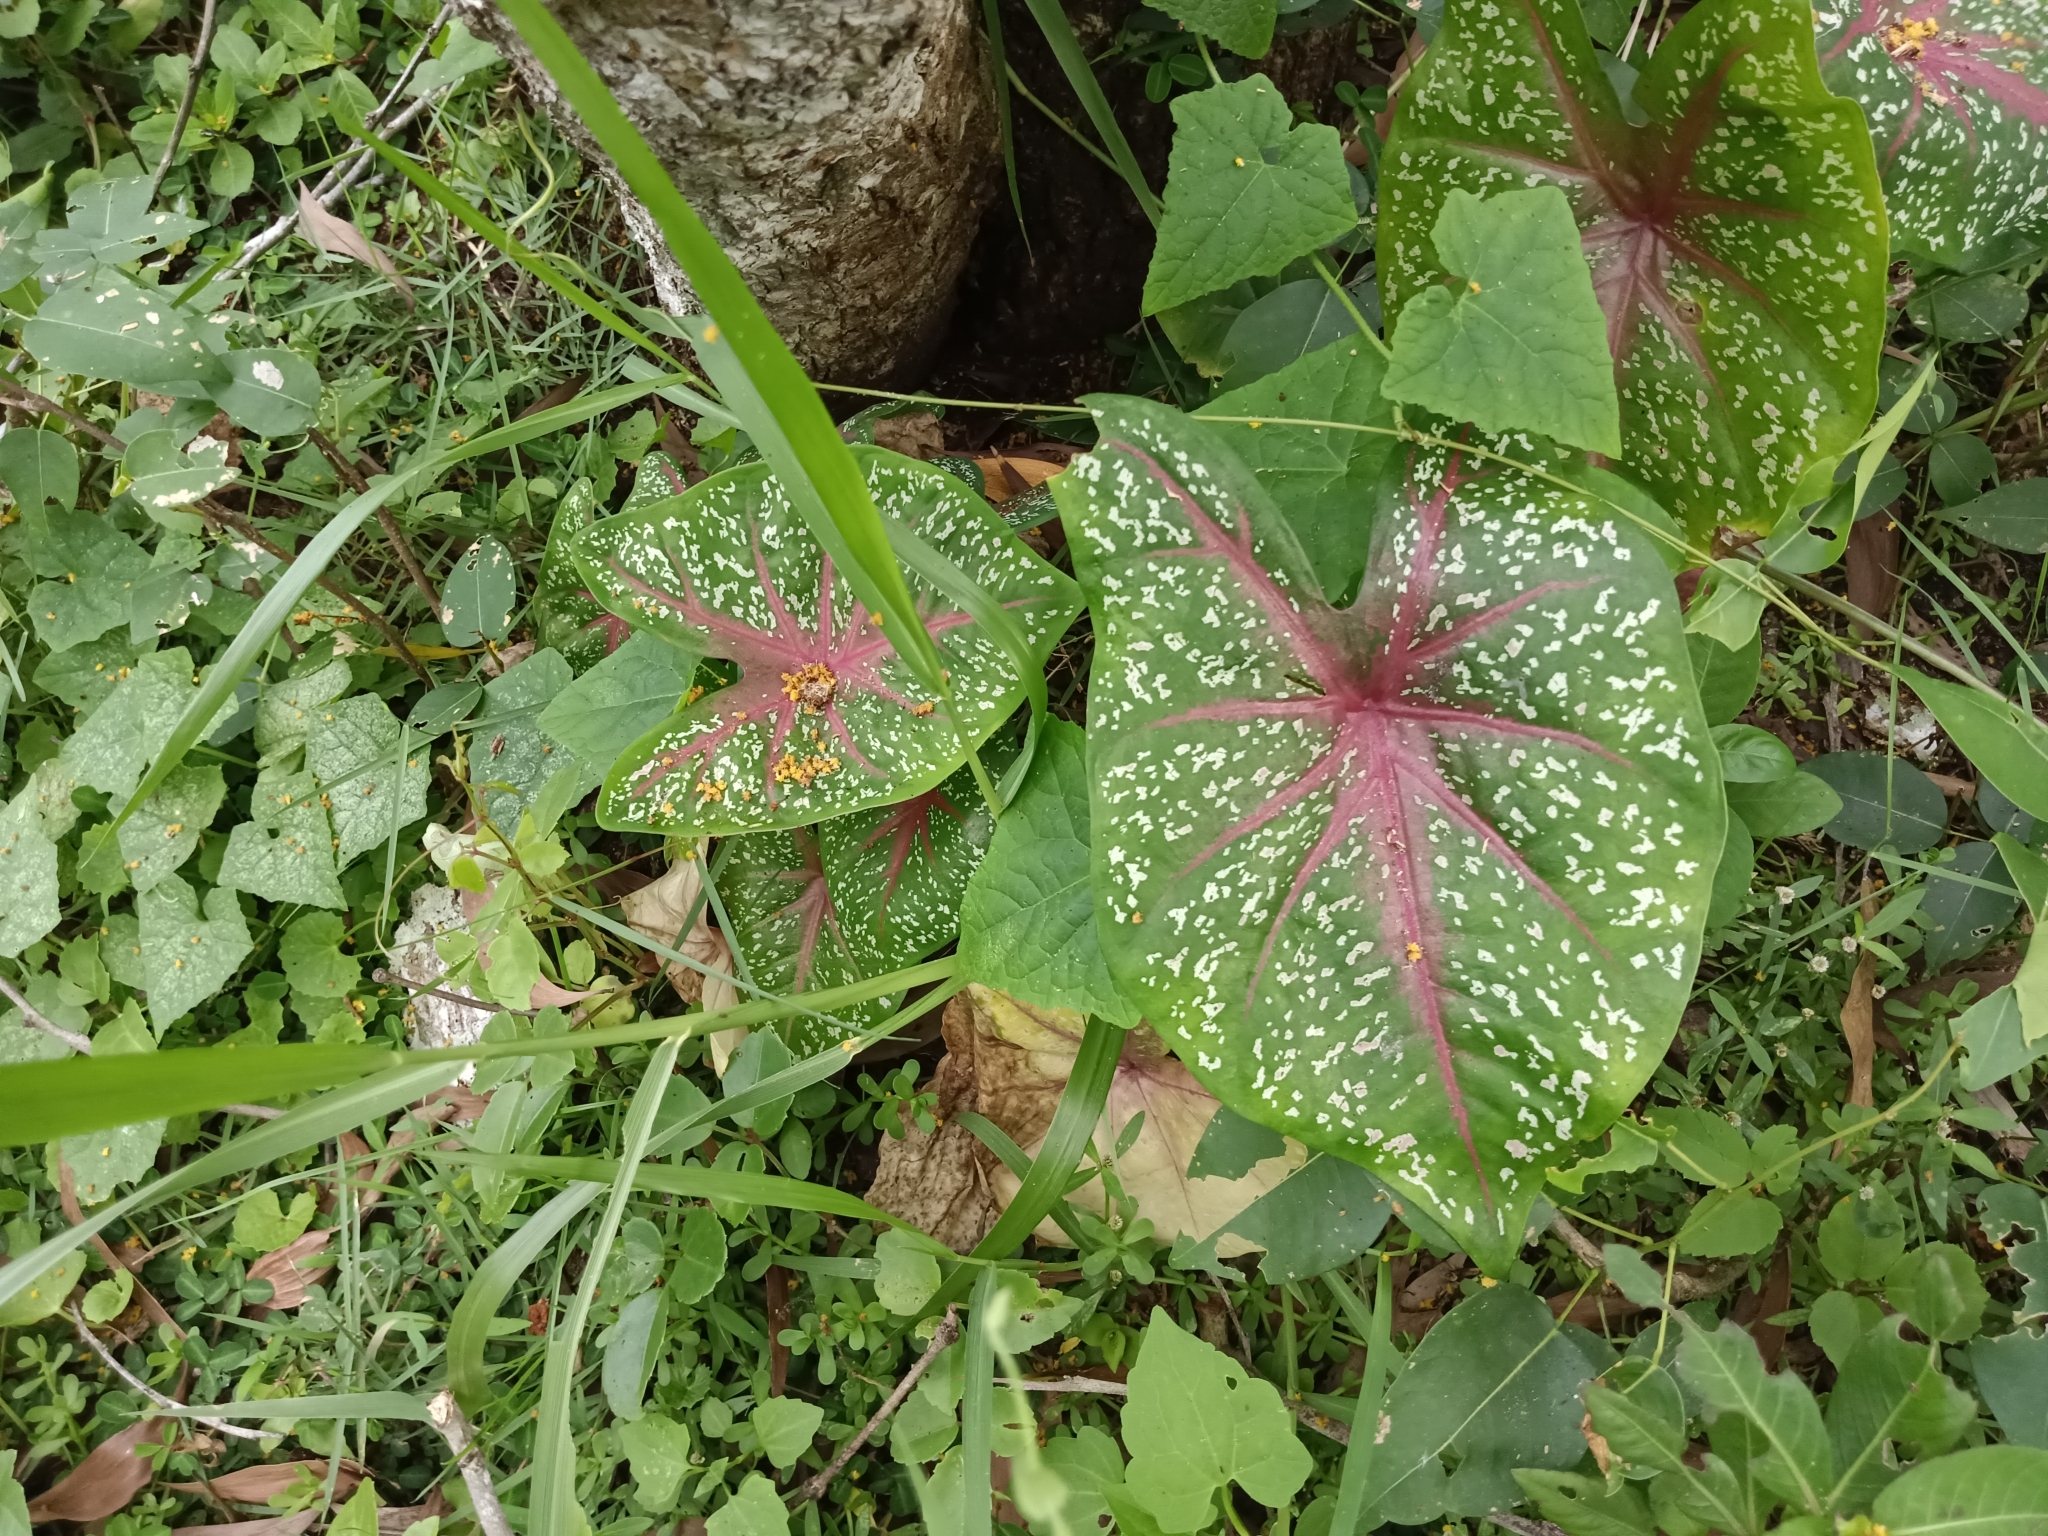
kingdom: Plantae
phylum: Tracheophyta
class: Liliopsida
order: Alismatales
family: Araceae
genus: Caladium
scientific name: Caladium bicolor
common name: Artist's pallet
